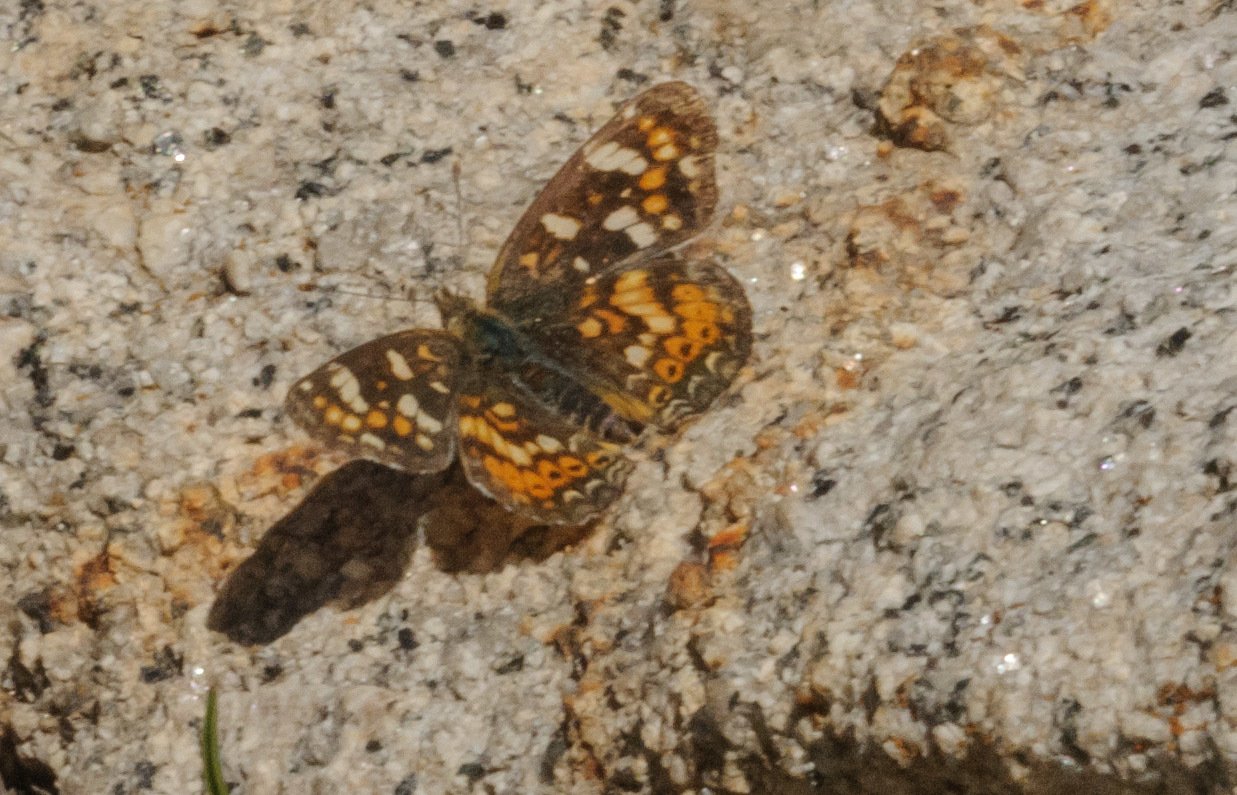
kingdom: Animalia
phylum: Arthropoda
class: Insecta
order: Lepidoptera
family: Nymphalidae
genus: Phyciodes
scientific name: Phyciodes tharos
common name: Pearl crescent
